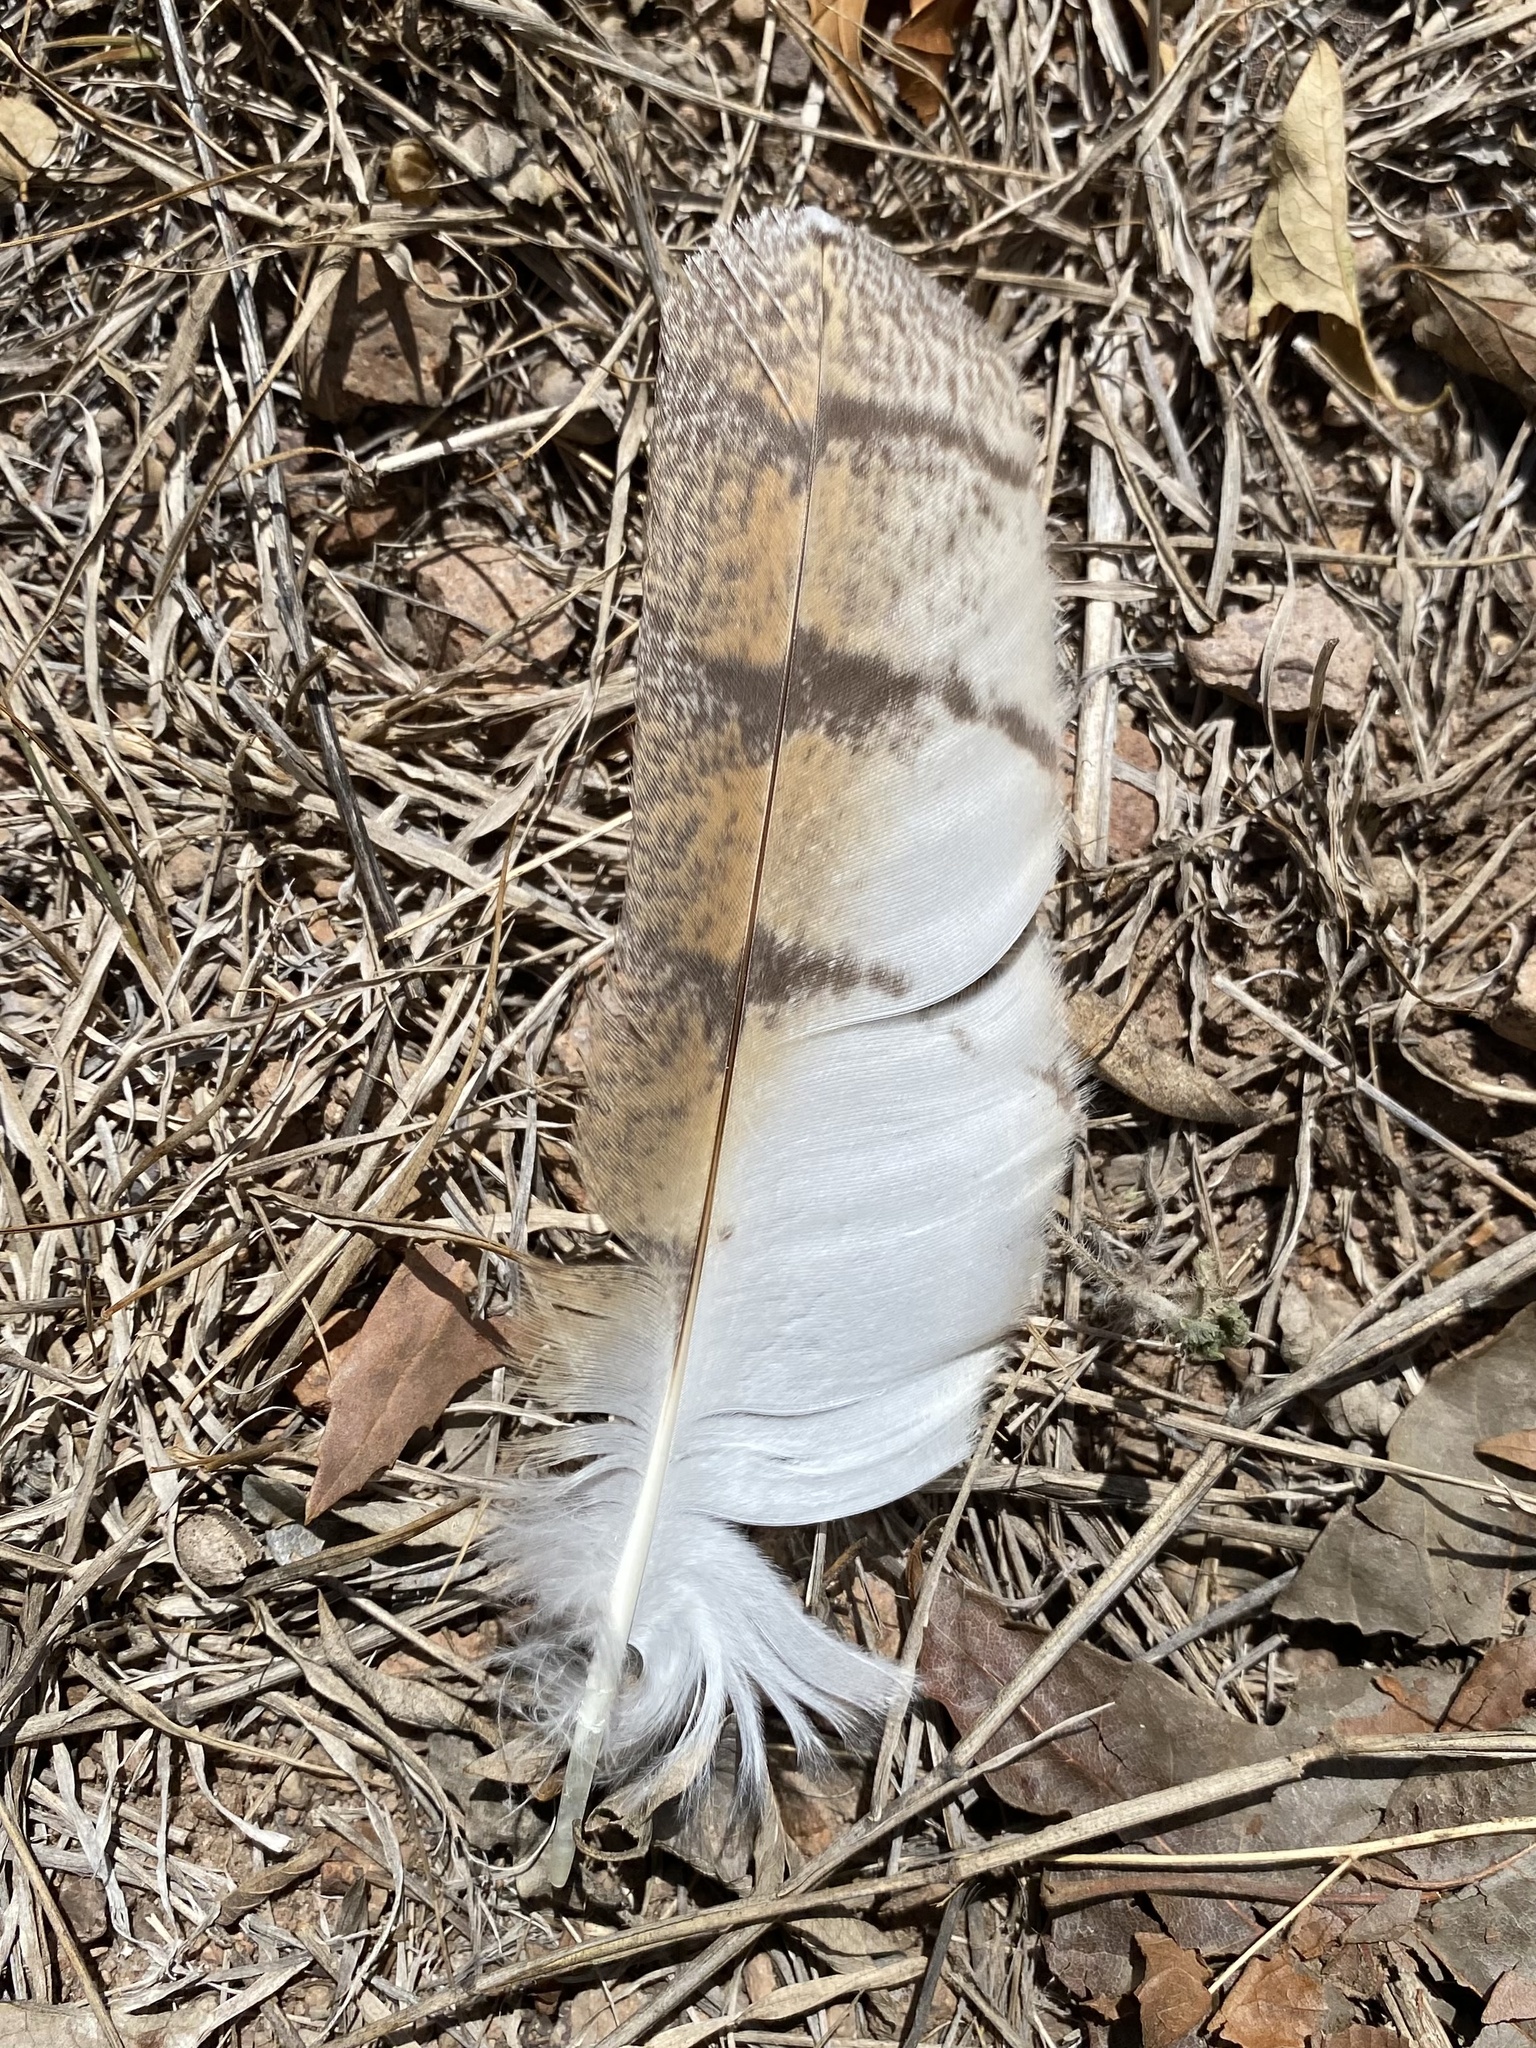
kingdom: Animalia
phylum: Chordata
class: Aves
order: Strigiformes
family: Tytonidae
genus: Tyto
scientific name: Tyto alba
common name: Barn owl
